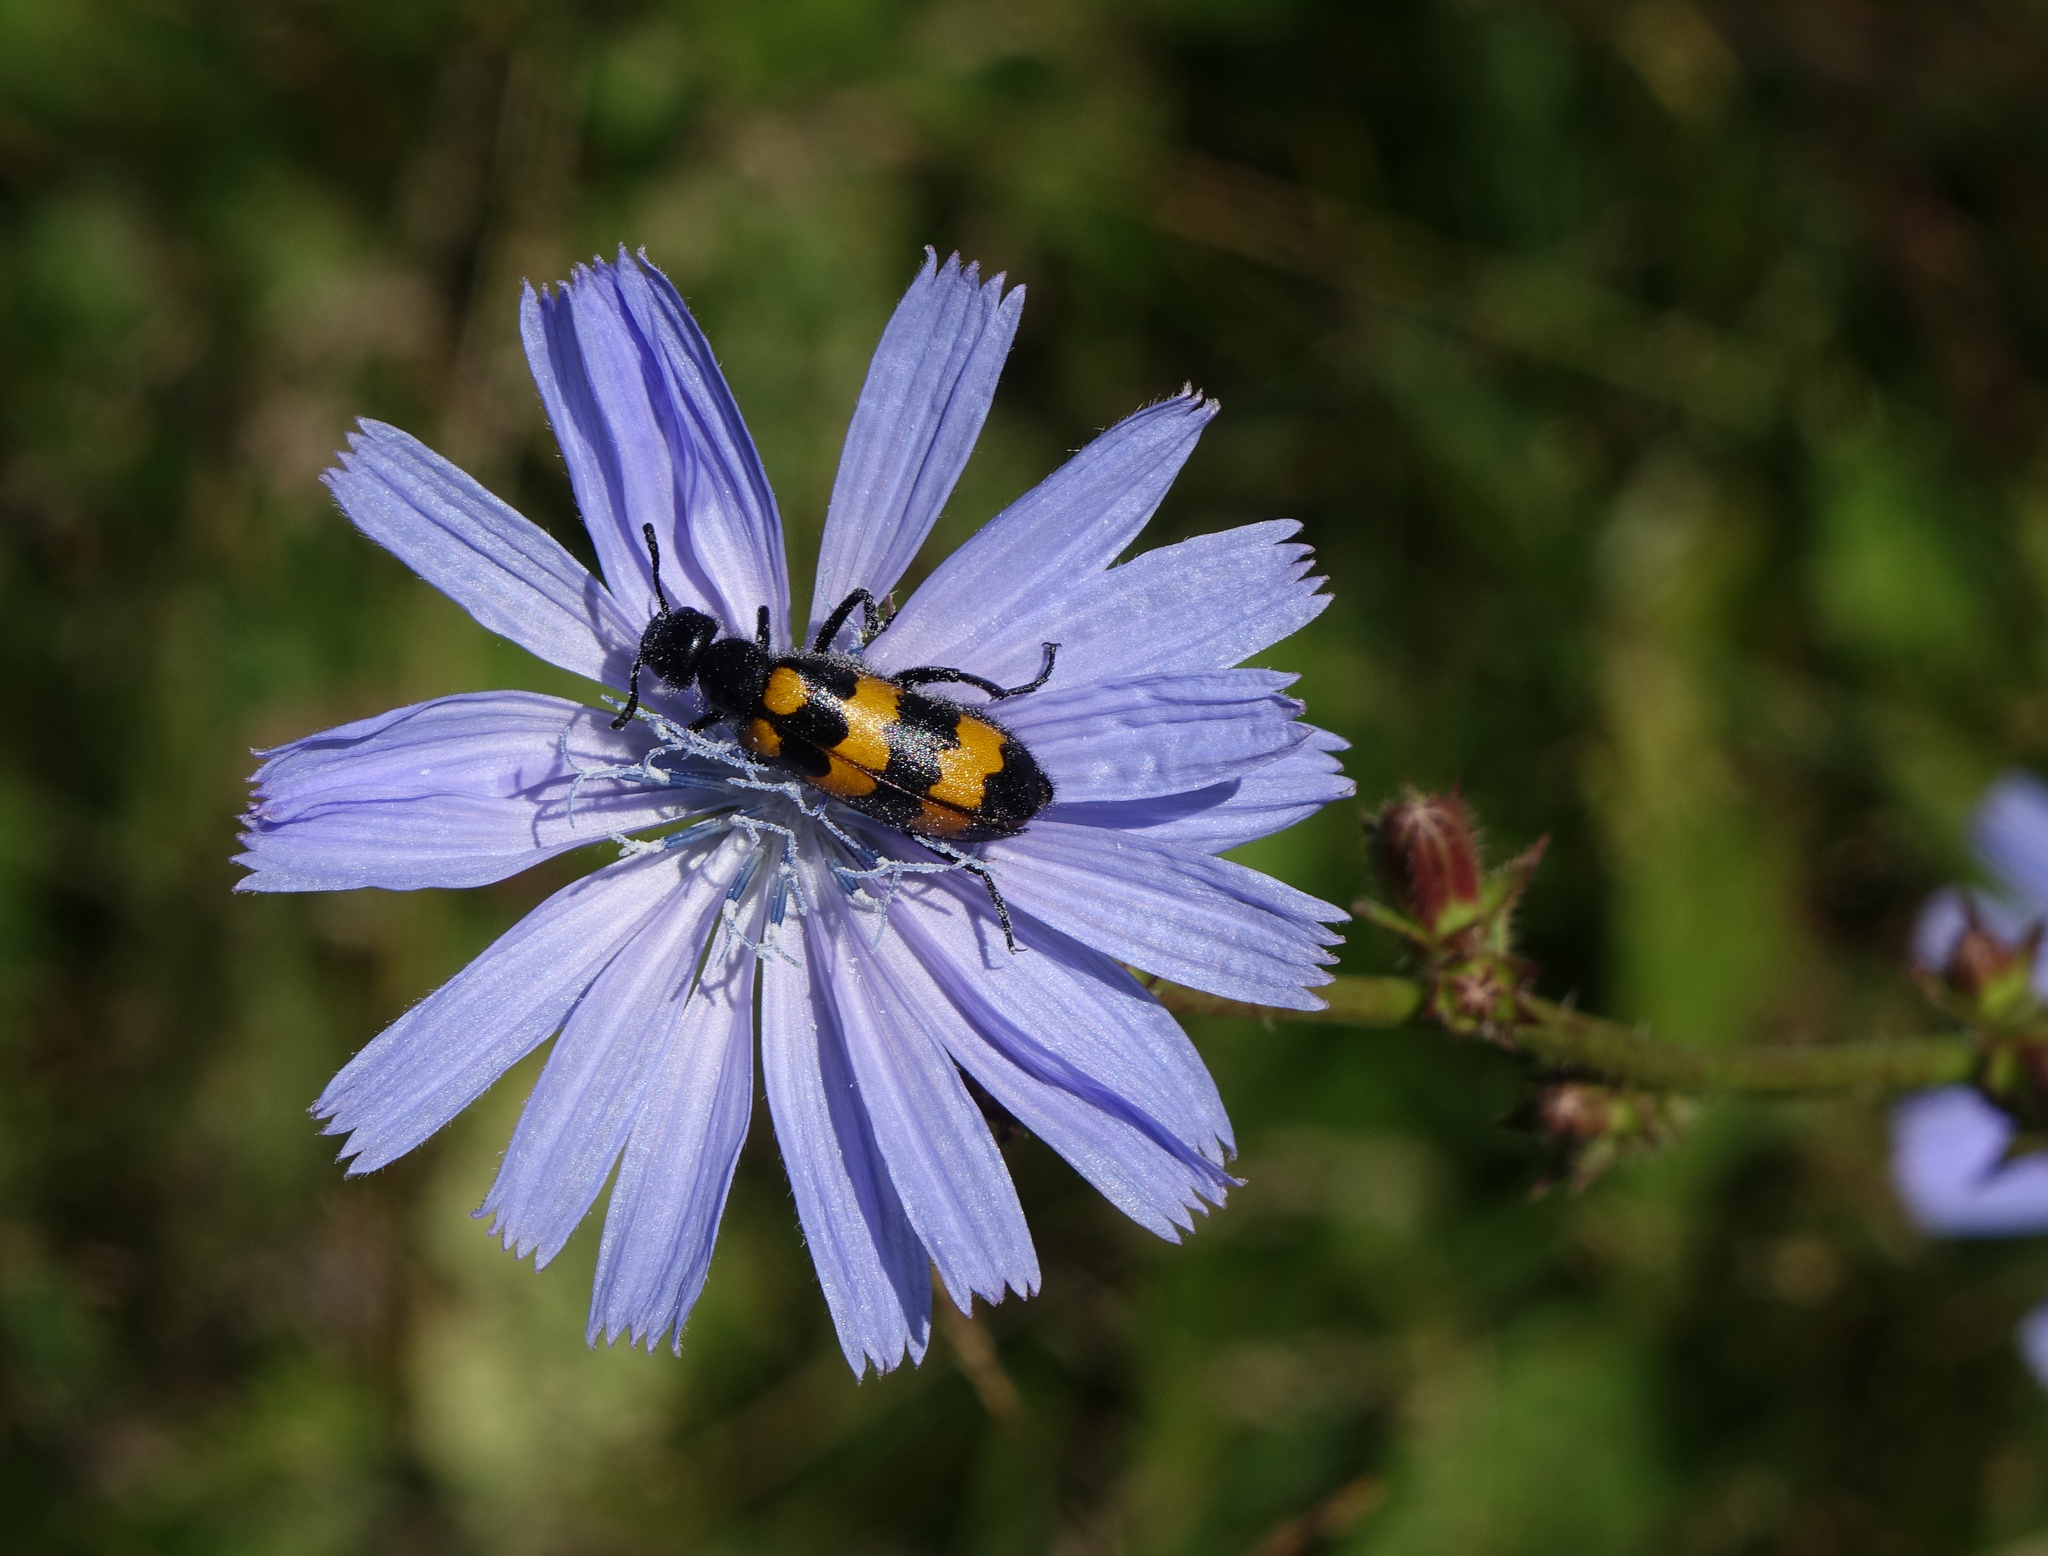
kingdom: Animalia
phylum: Arthropoda
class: Insecta
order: Coleoptera
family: Meloidae
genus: Mylabris
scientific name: Mylabris variabilis
